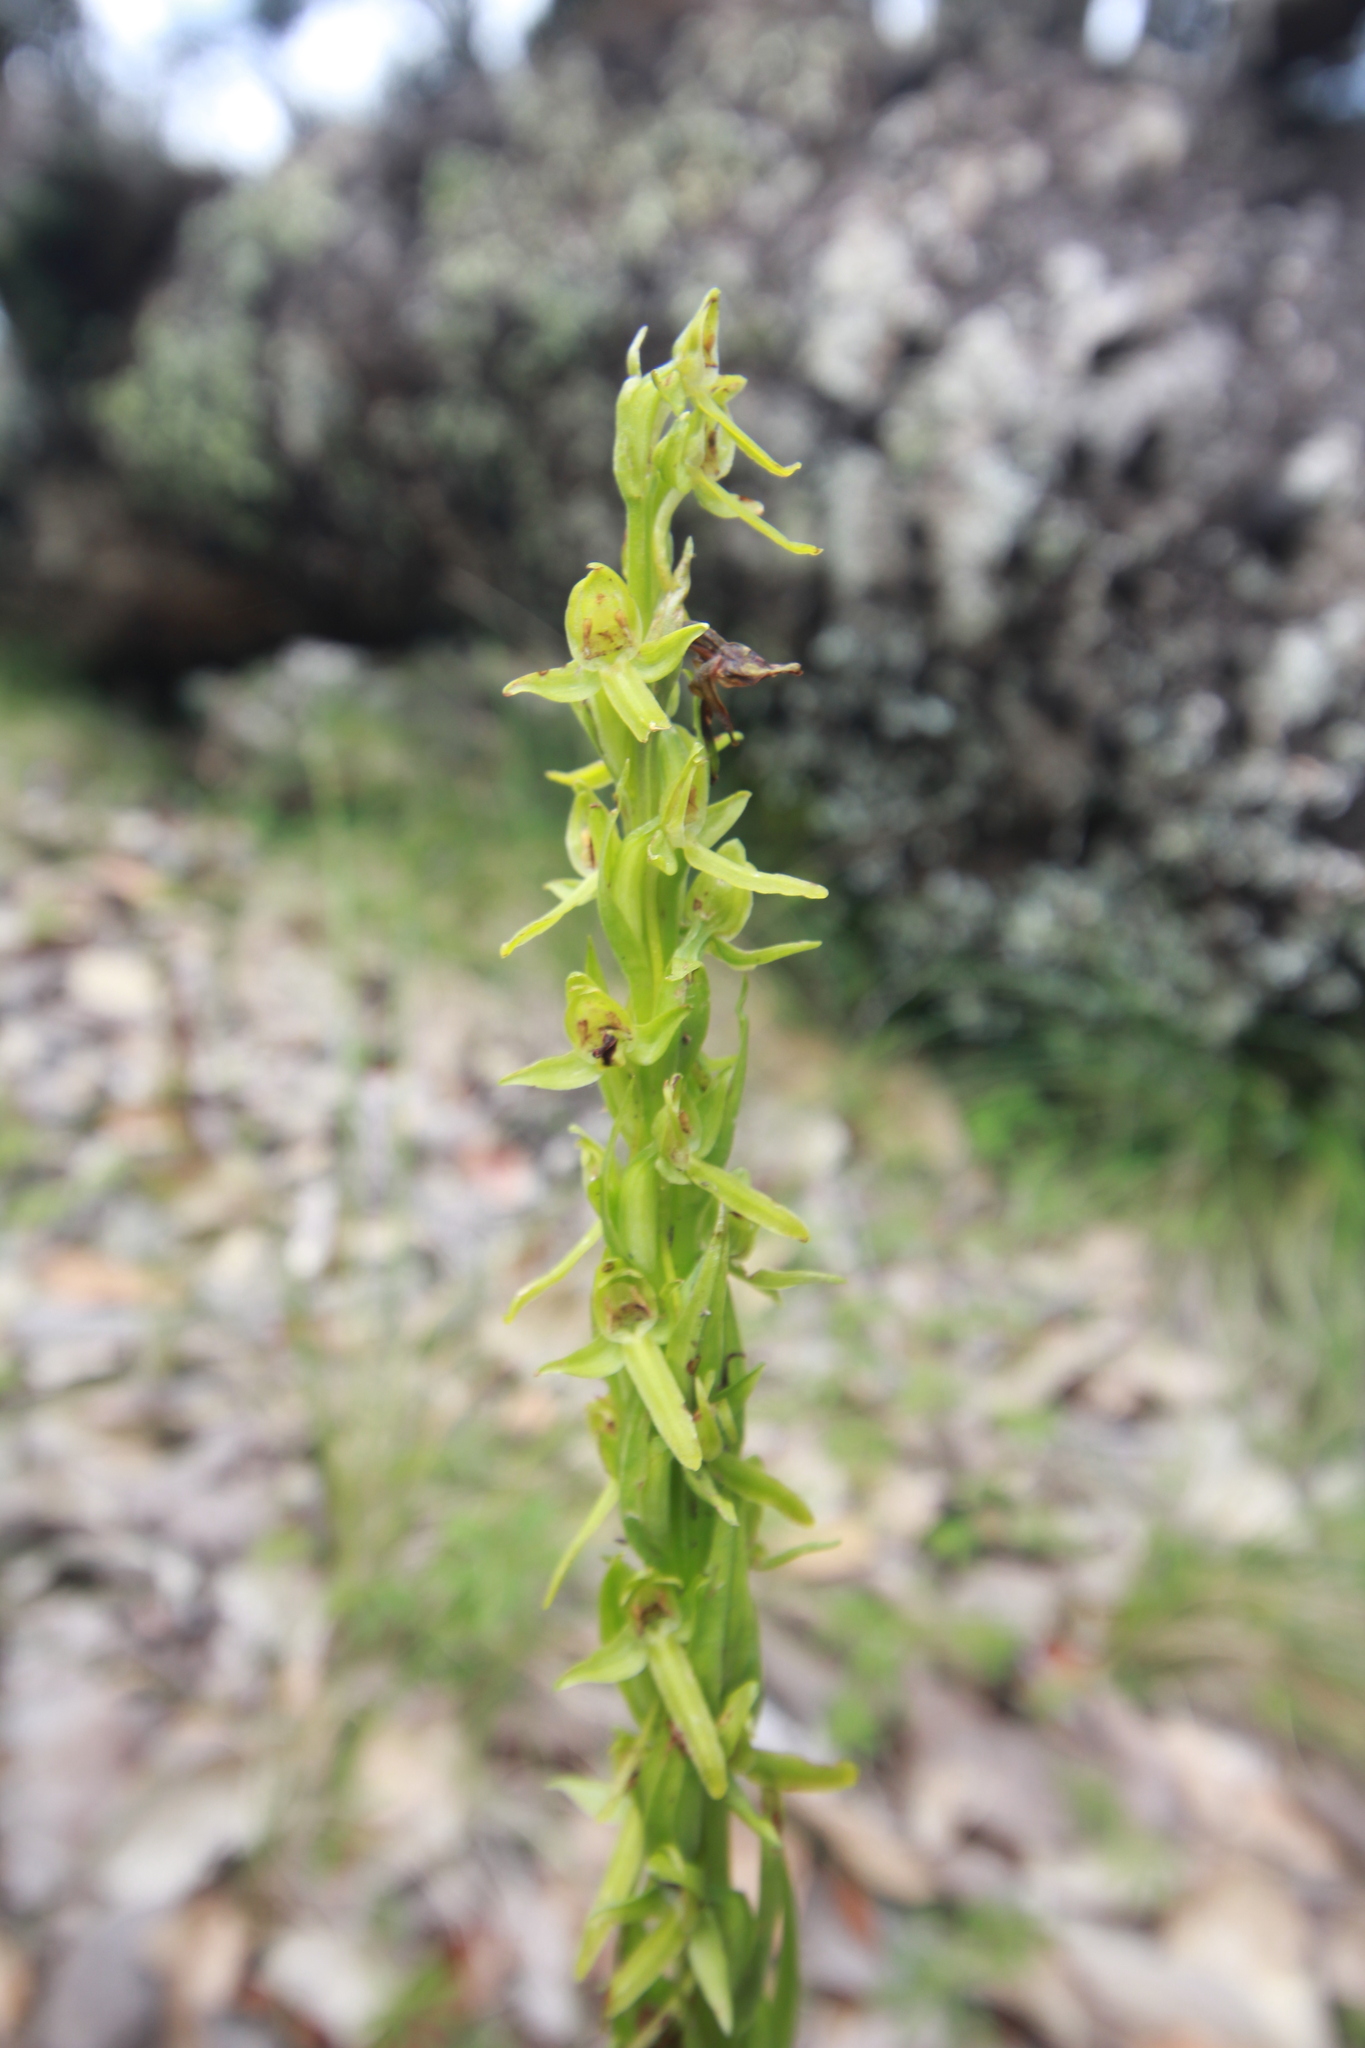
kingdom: Plantae
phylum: Tracheophyta
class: Liliopsida
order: Asparagales
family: Orchidaceae
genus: Platanthera
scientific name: Platanthera brevifolia
